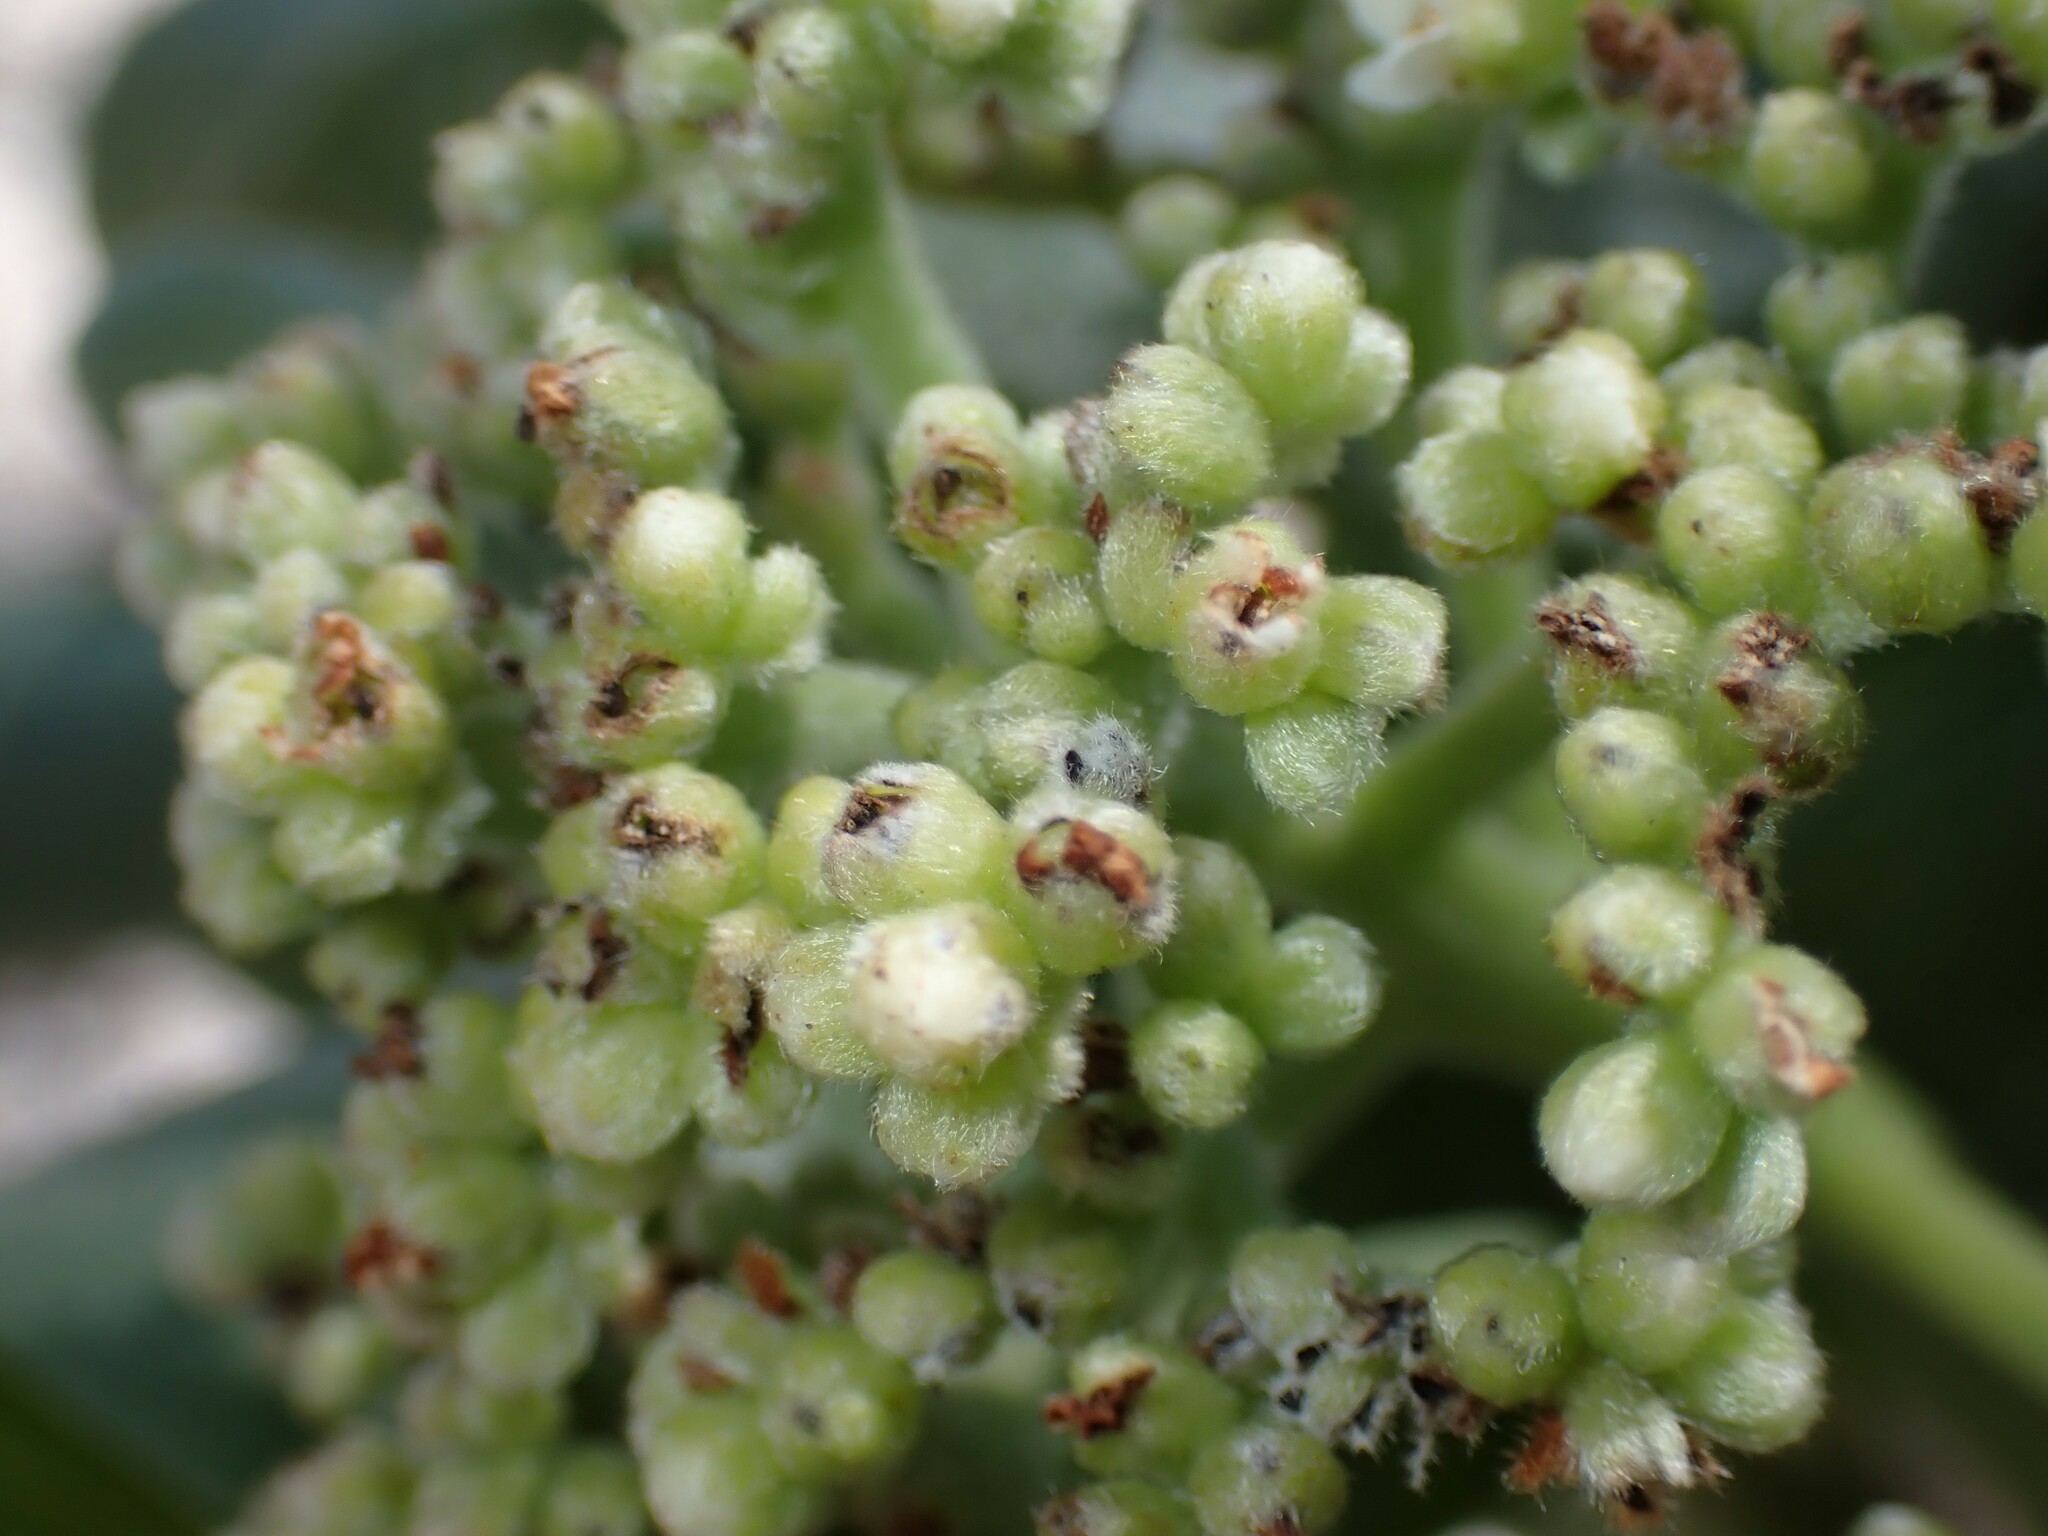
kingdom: Plantae
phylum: Tracheophyta
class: Magnoliopsida
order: Boraginales
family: Heliotropiaceae
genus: Heliotropium
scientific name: Heliotropium velutinum
